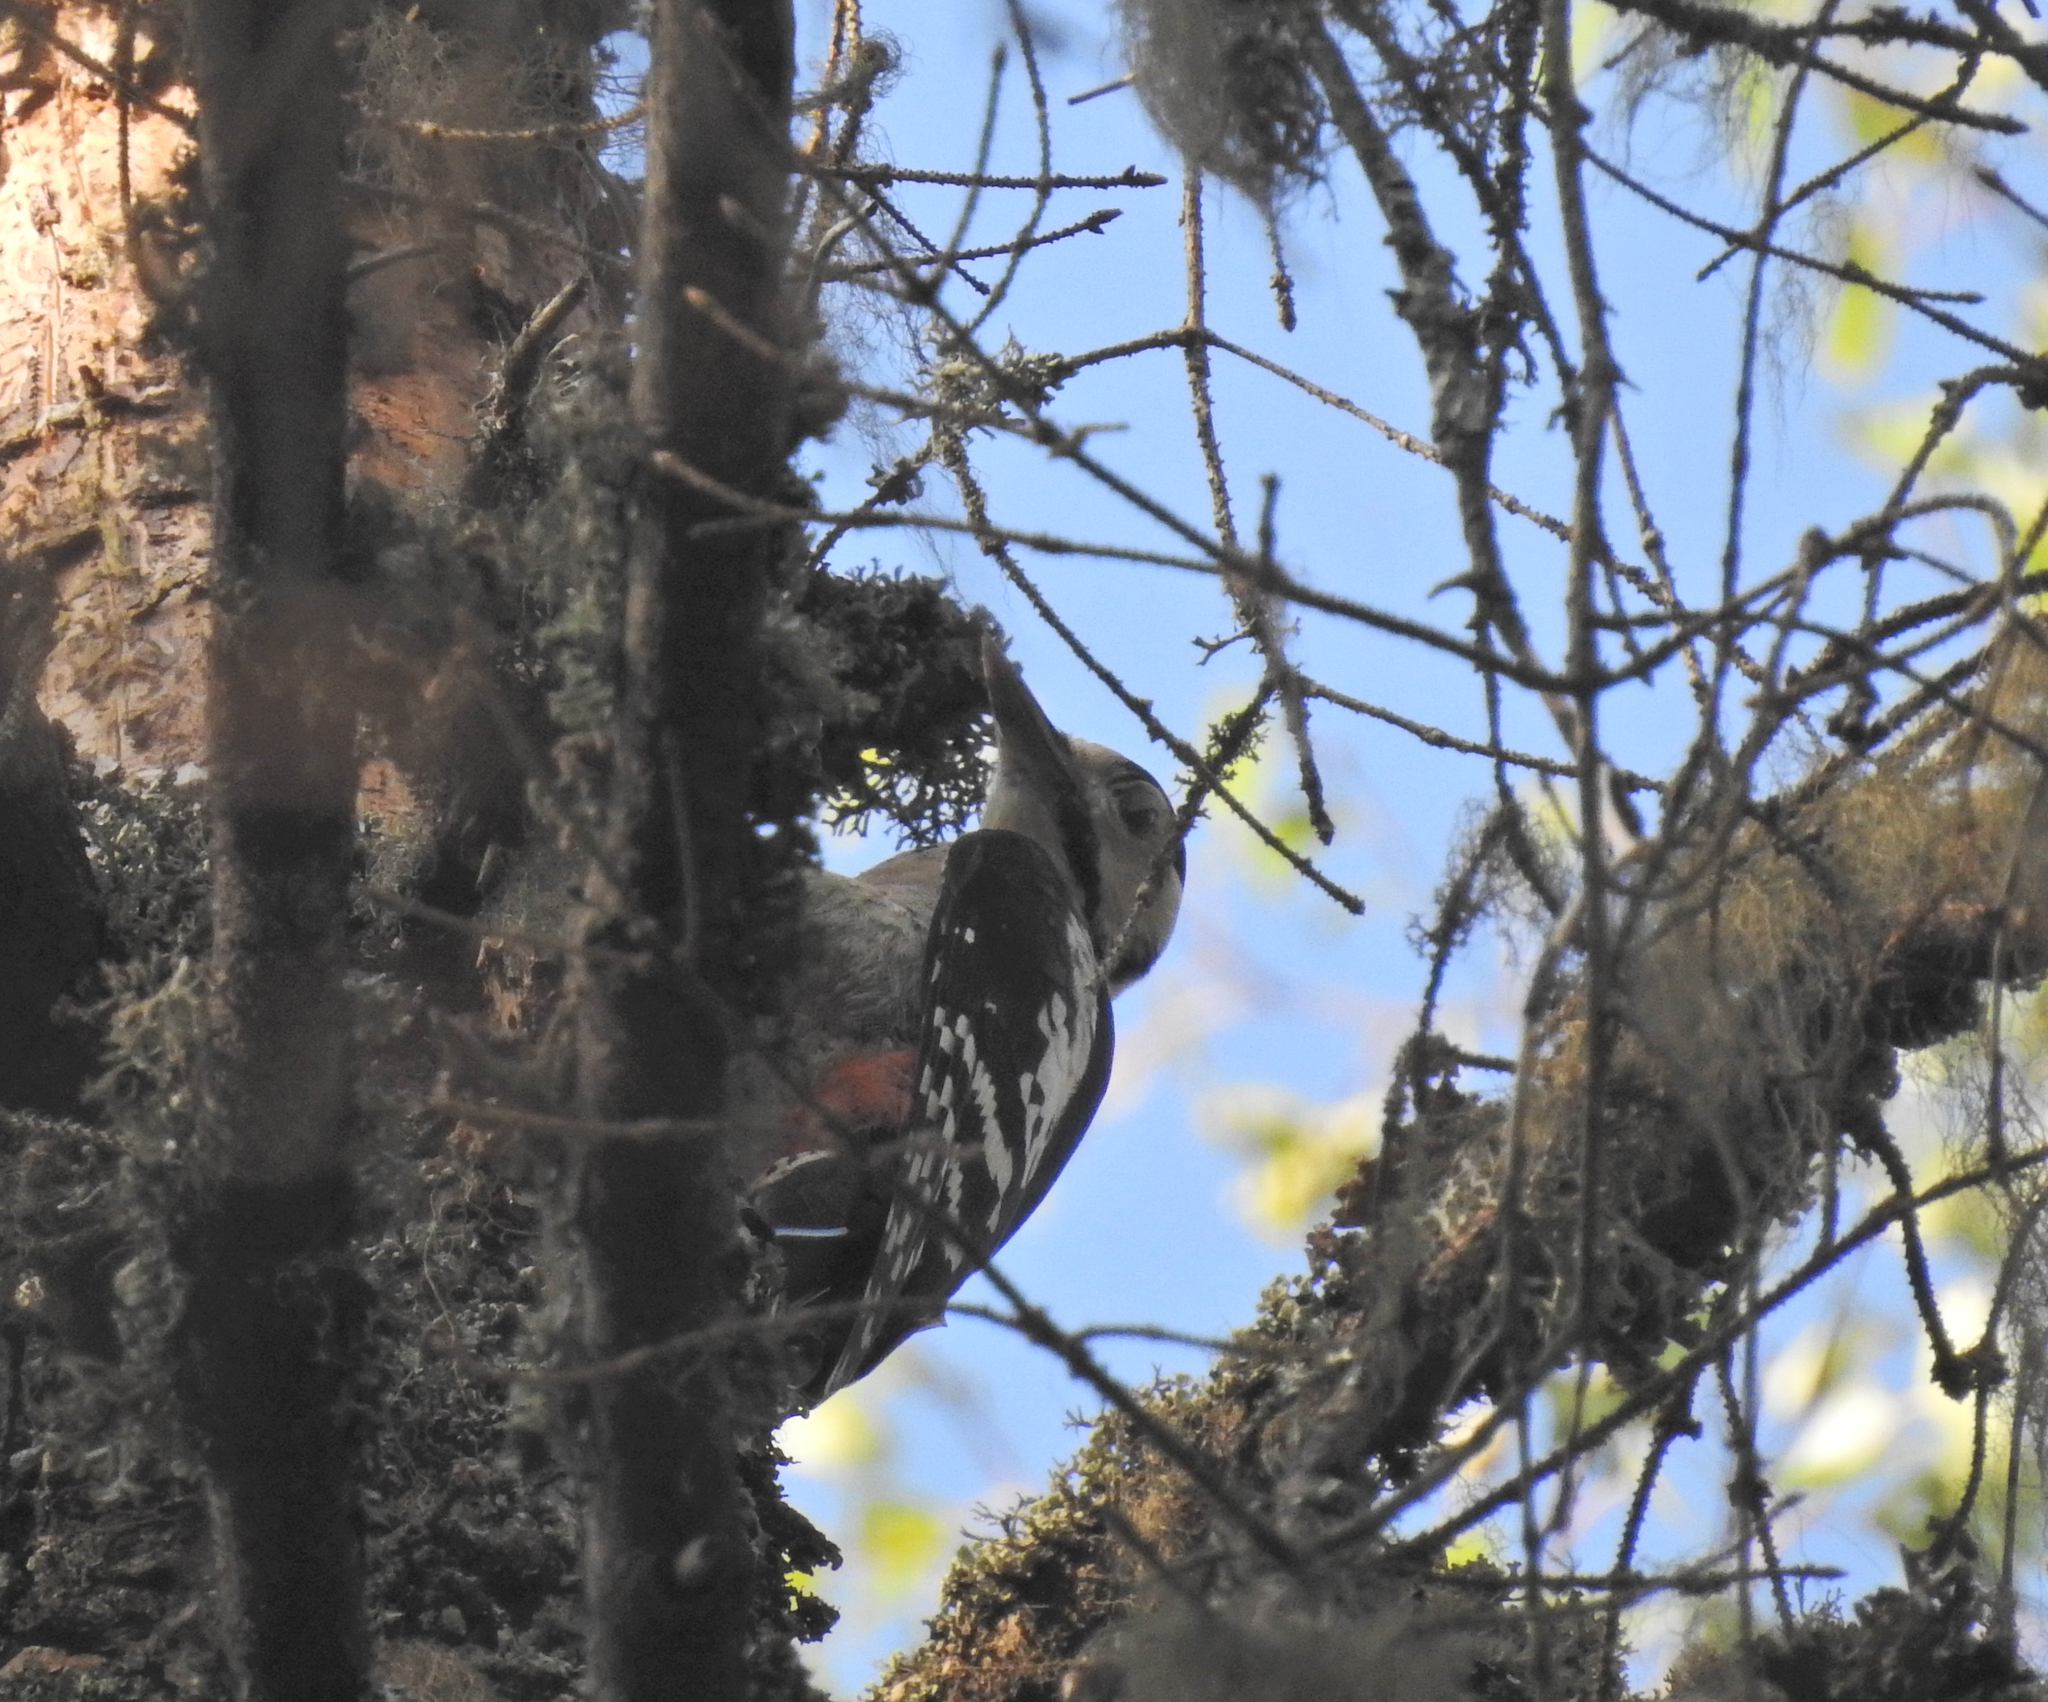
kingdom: Animalia
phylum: Chordata
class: Aves
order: Piciformes
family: Picidae
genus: Dendrocopos
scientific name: Dendrocopos major
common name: Great spotted woodpecker
